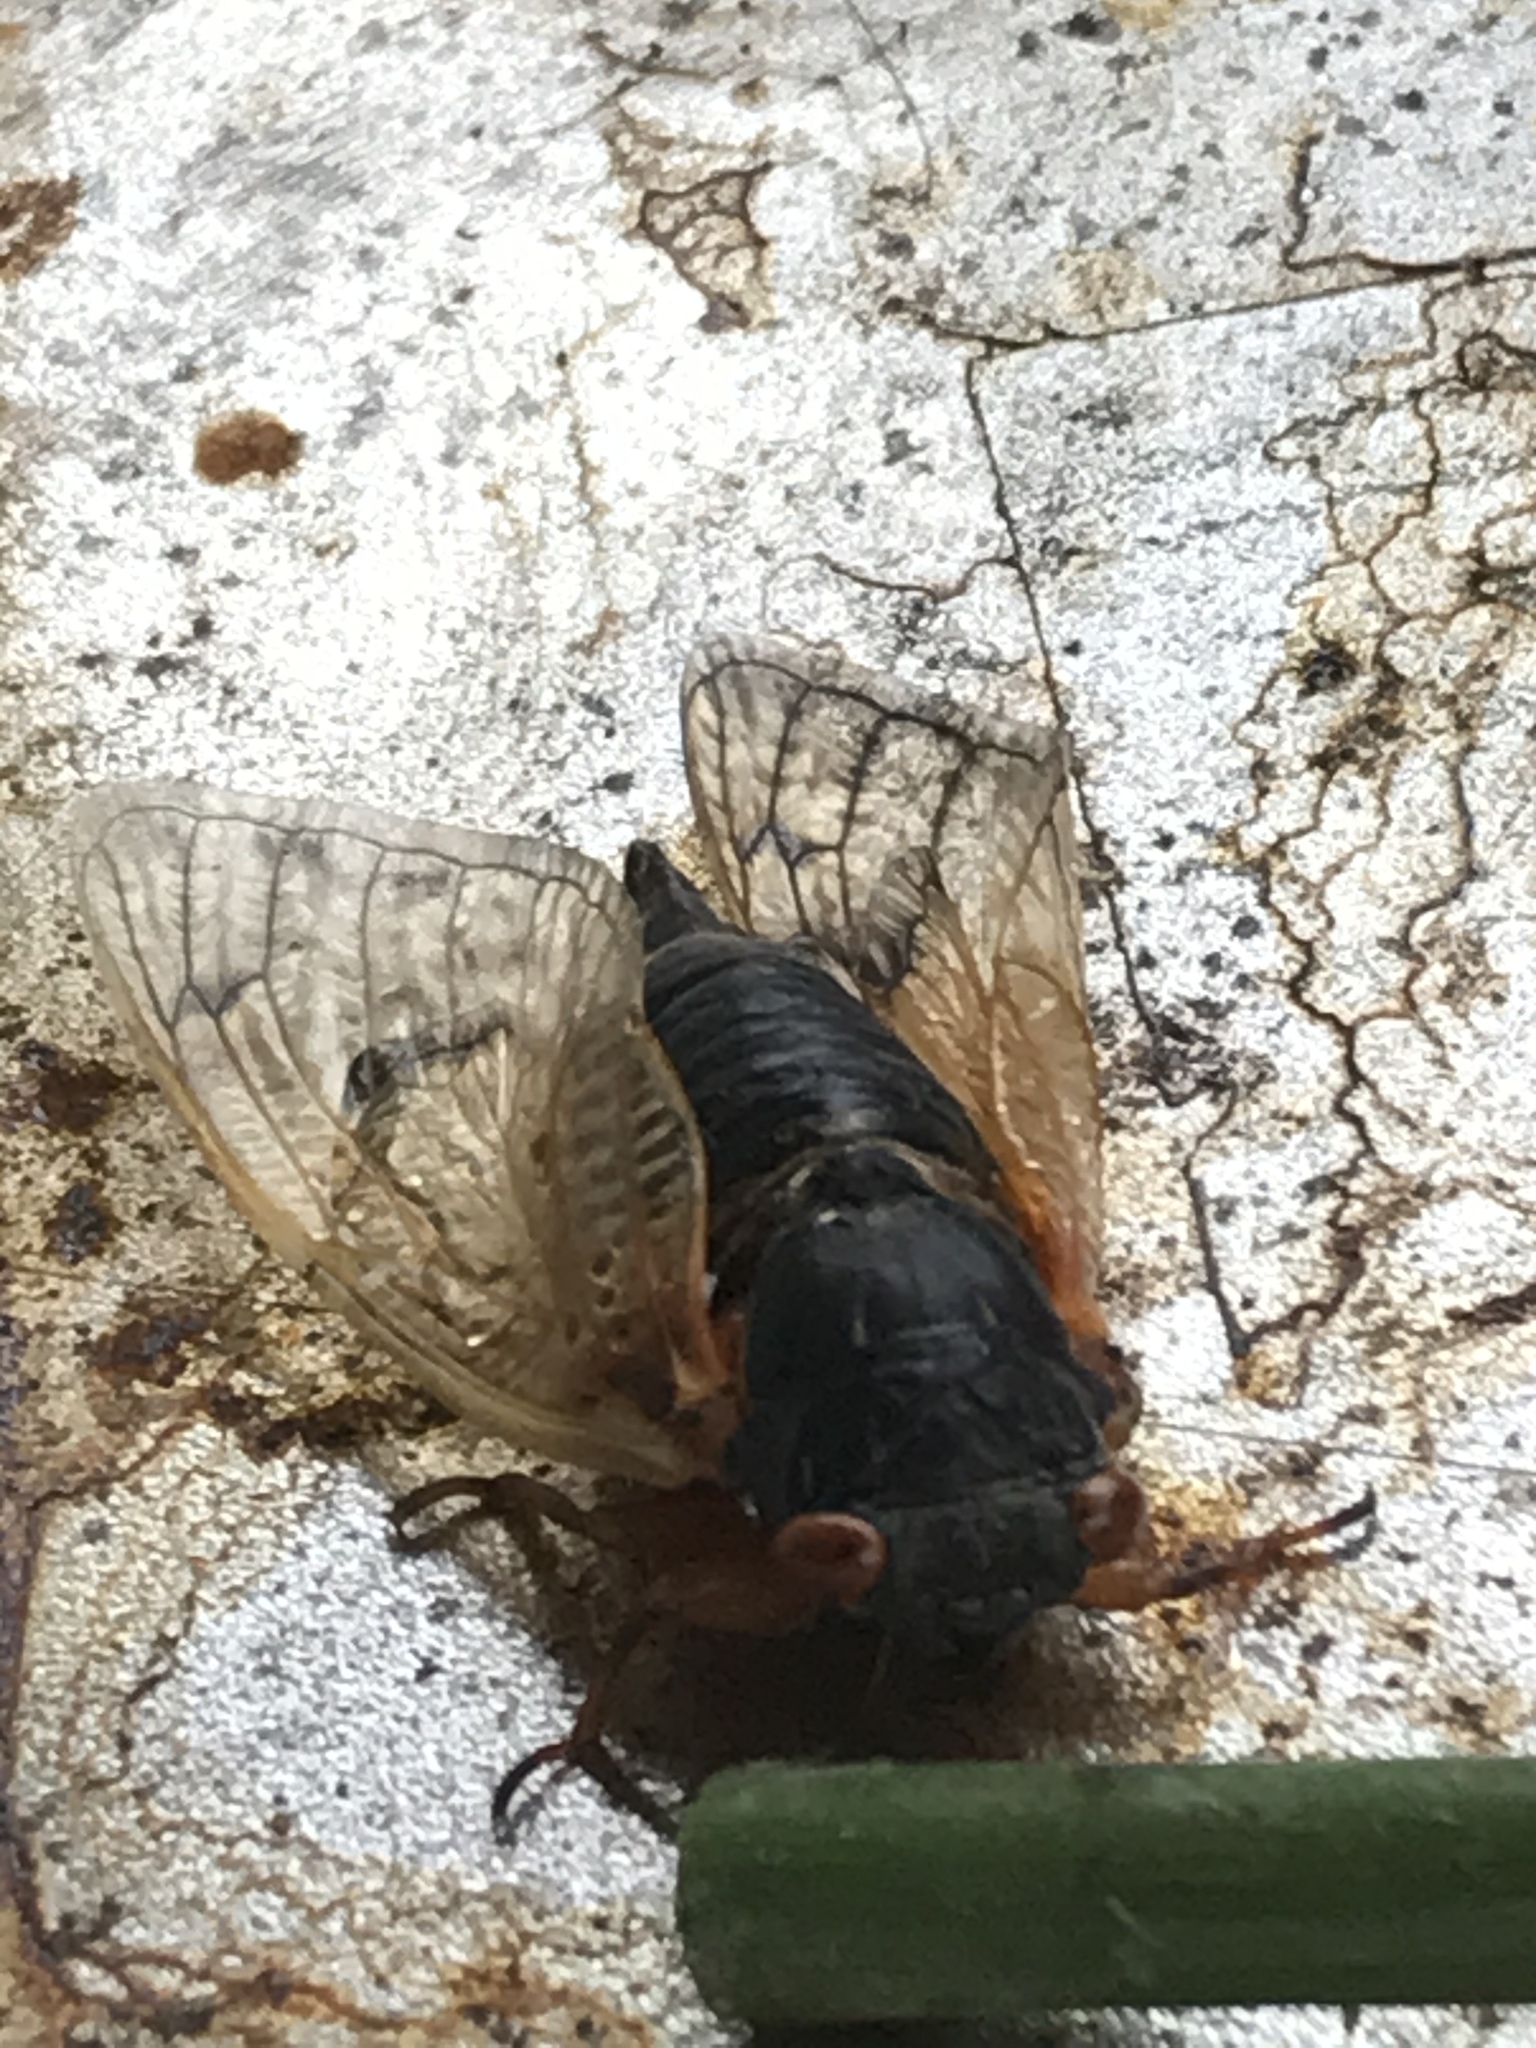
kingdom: Animalia
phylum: Arthropoda
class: Insecta
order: Hemiptera
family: Cicadidae
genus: Magicicada
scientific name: Magicicada tredecassini
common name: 13-year cicada
